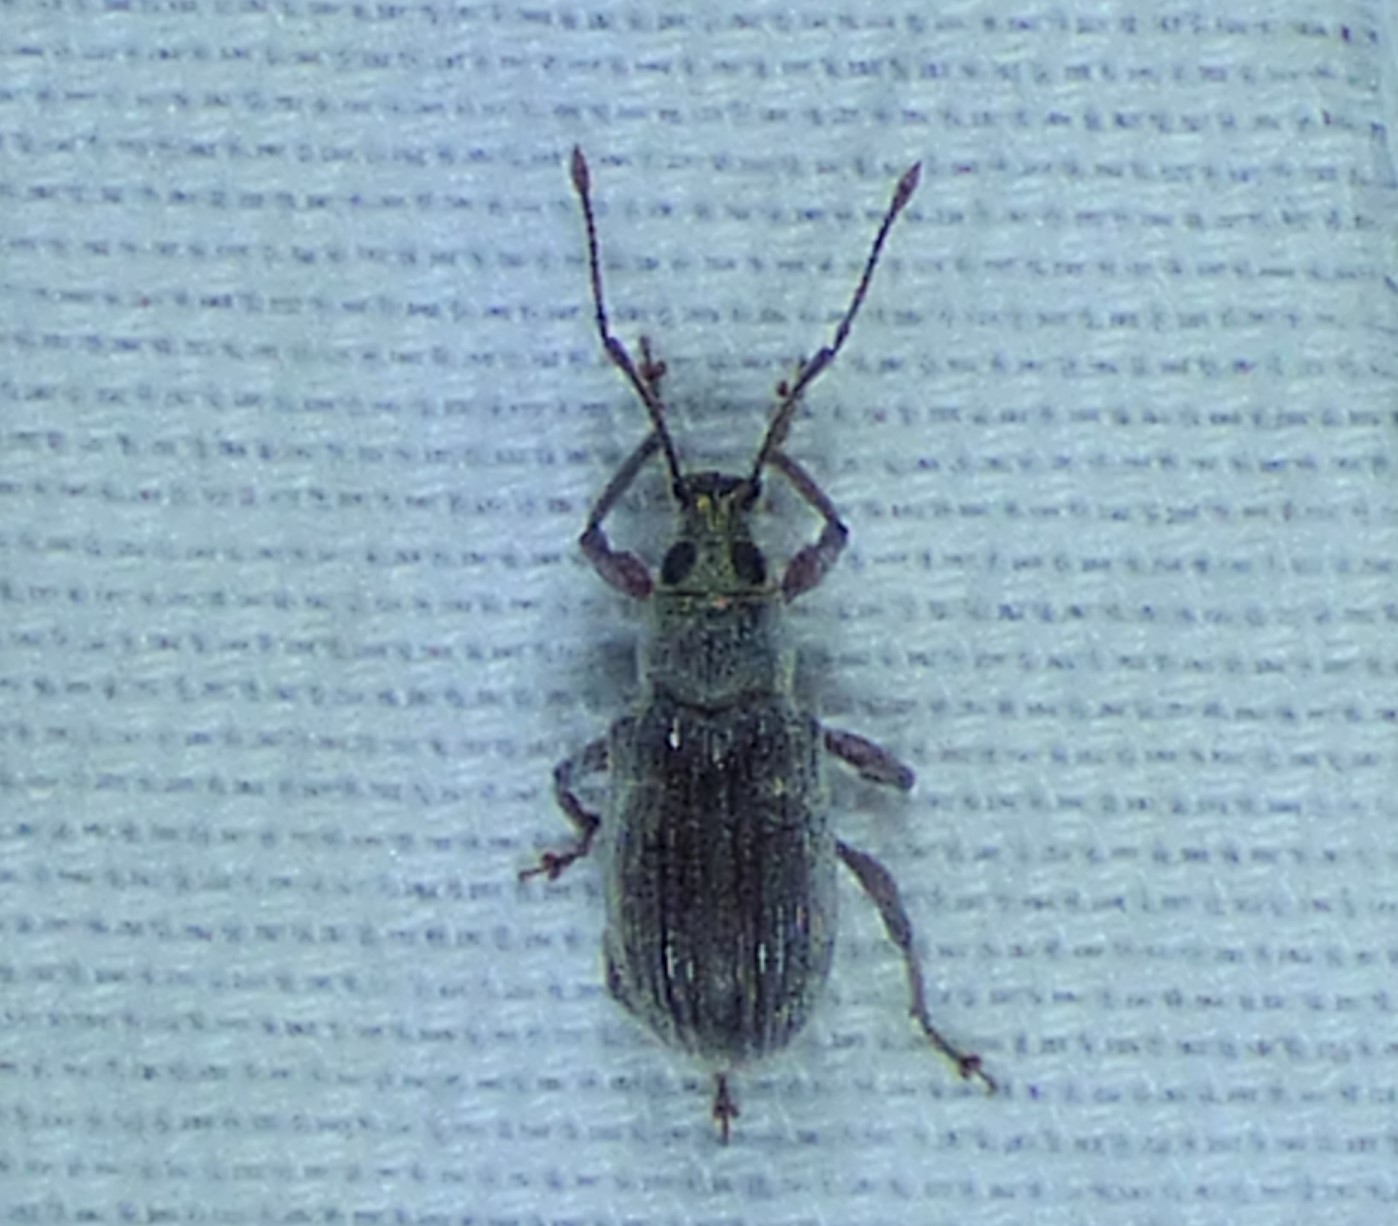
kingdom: Animalia
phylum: Arthropoda
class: Insecta
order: Coleoptera
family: Curculionidae
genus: Cyrtepistomus
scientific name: Cyrtepistomus castaneus
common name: Weevil
